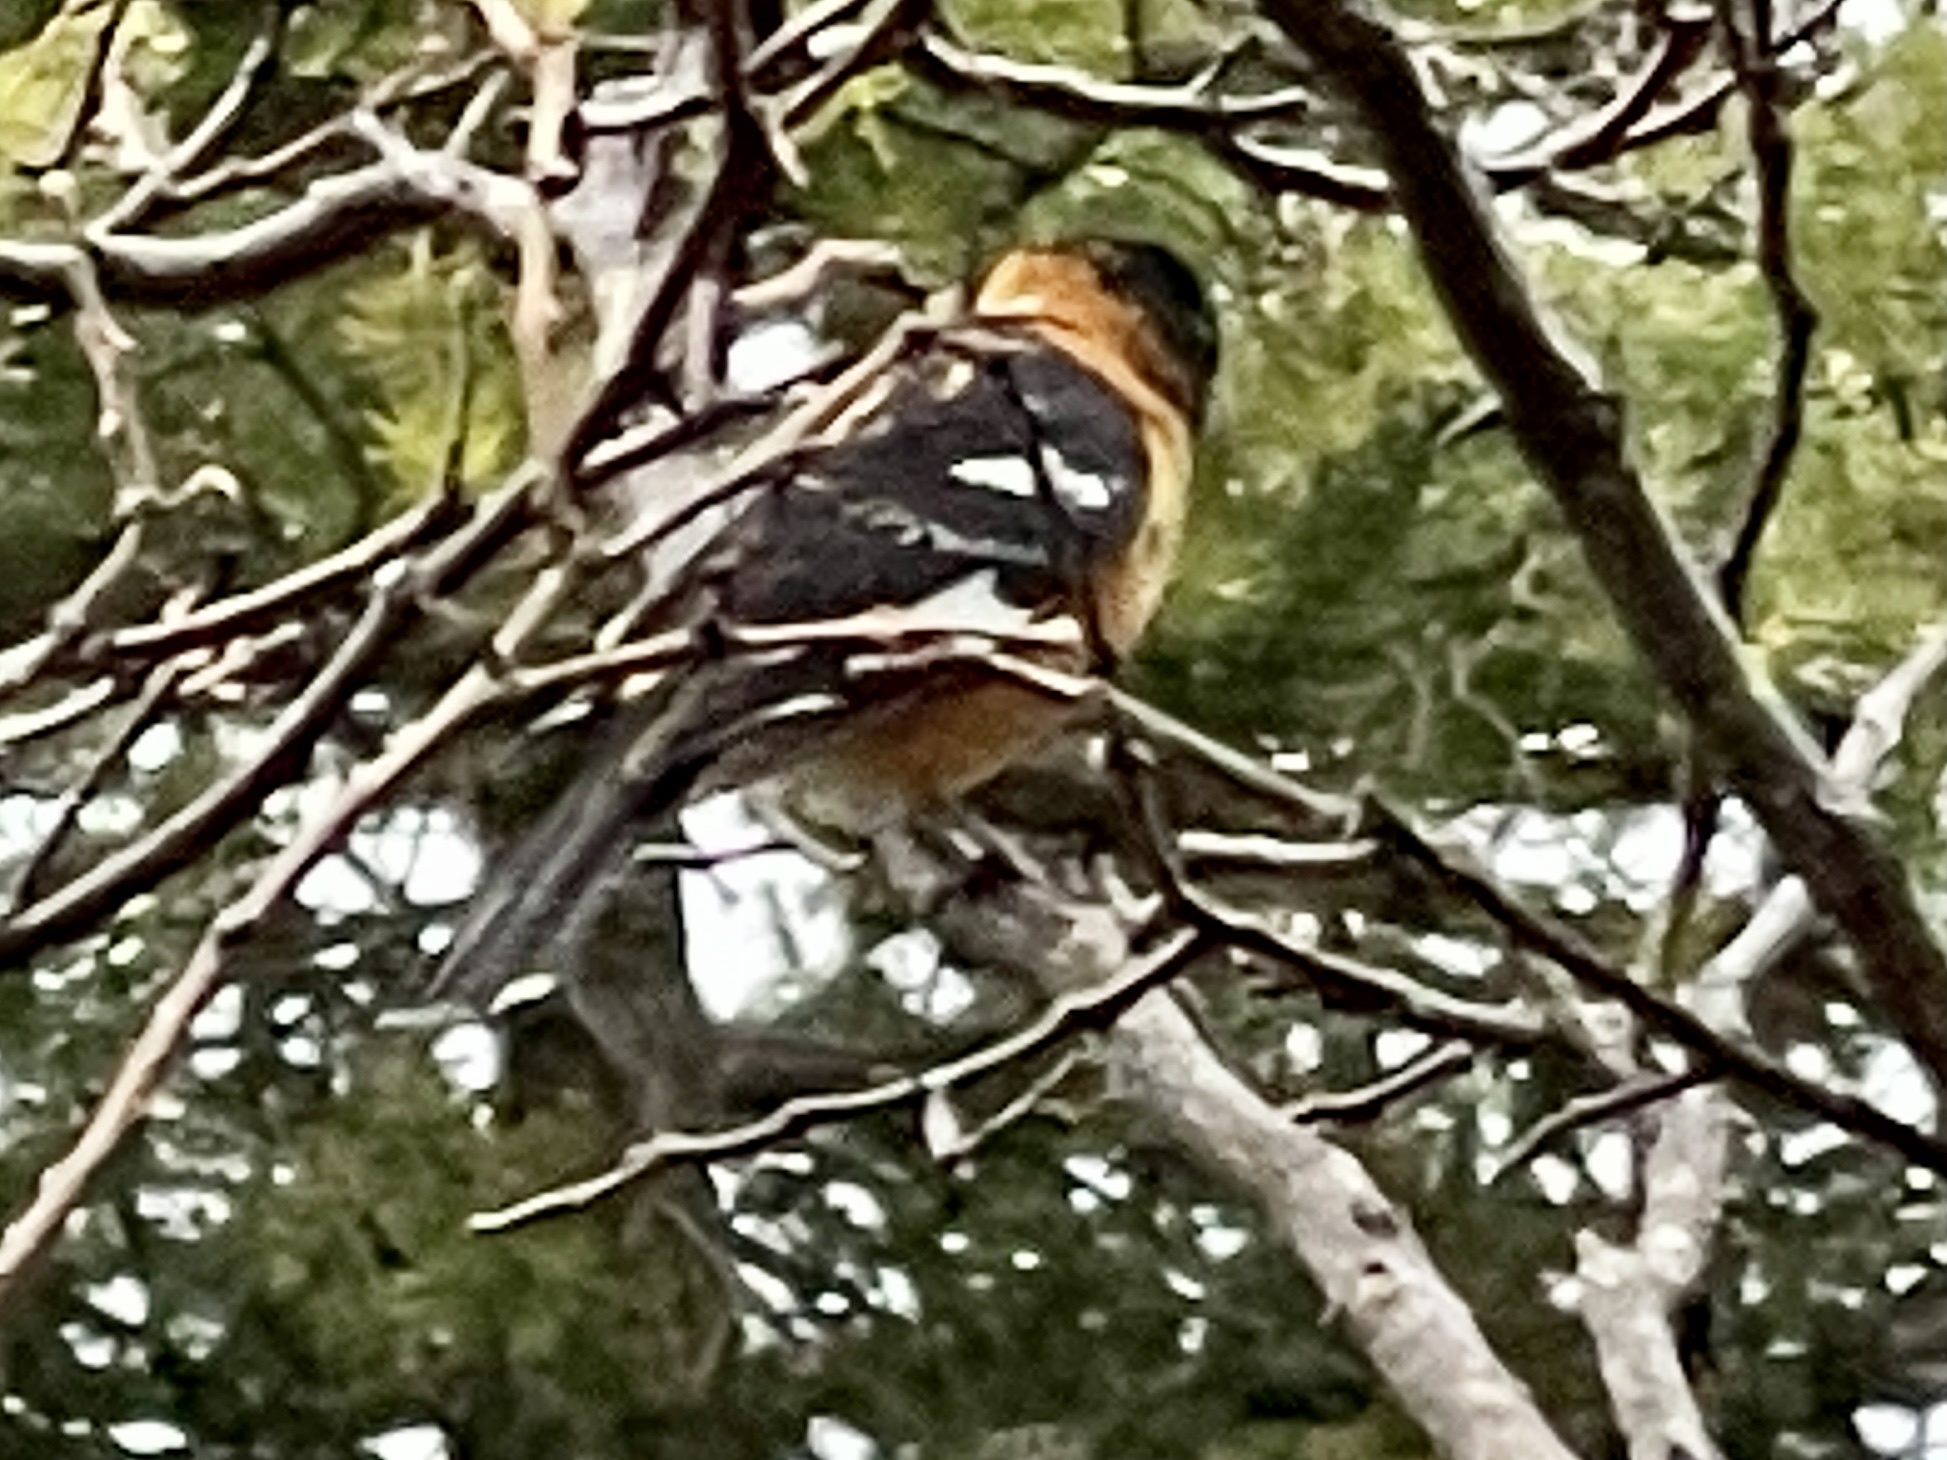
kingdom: Animalia
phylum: Chordata
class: Aves
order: Passeriformes
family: Cardinalidae
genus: Pheucticus
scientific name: Pheucticus melanocephalus
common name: Black-headed grosbeak
